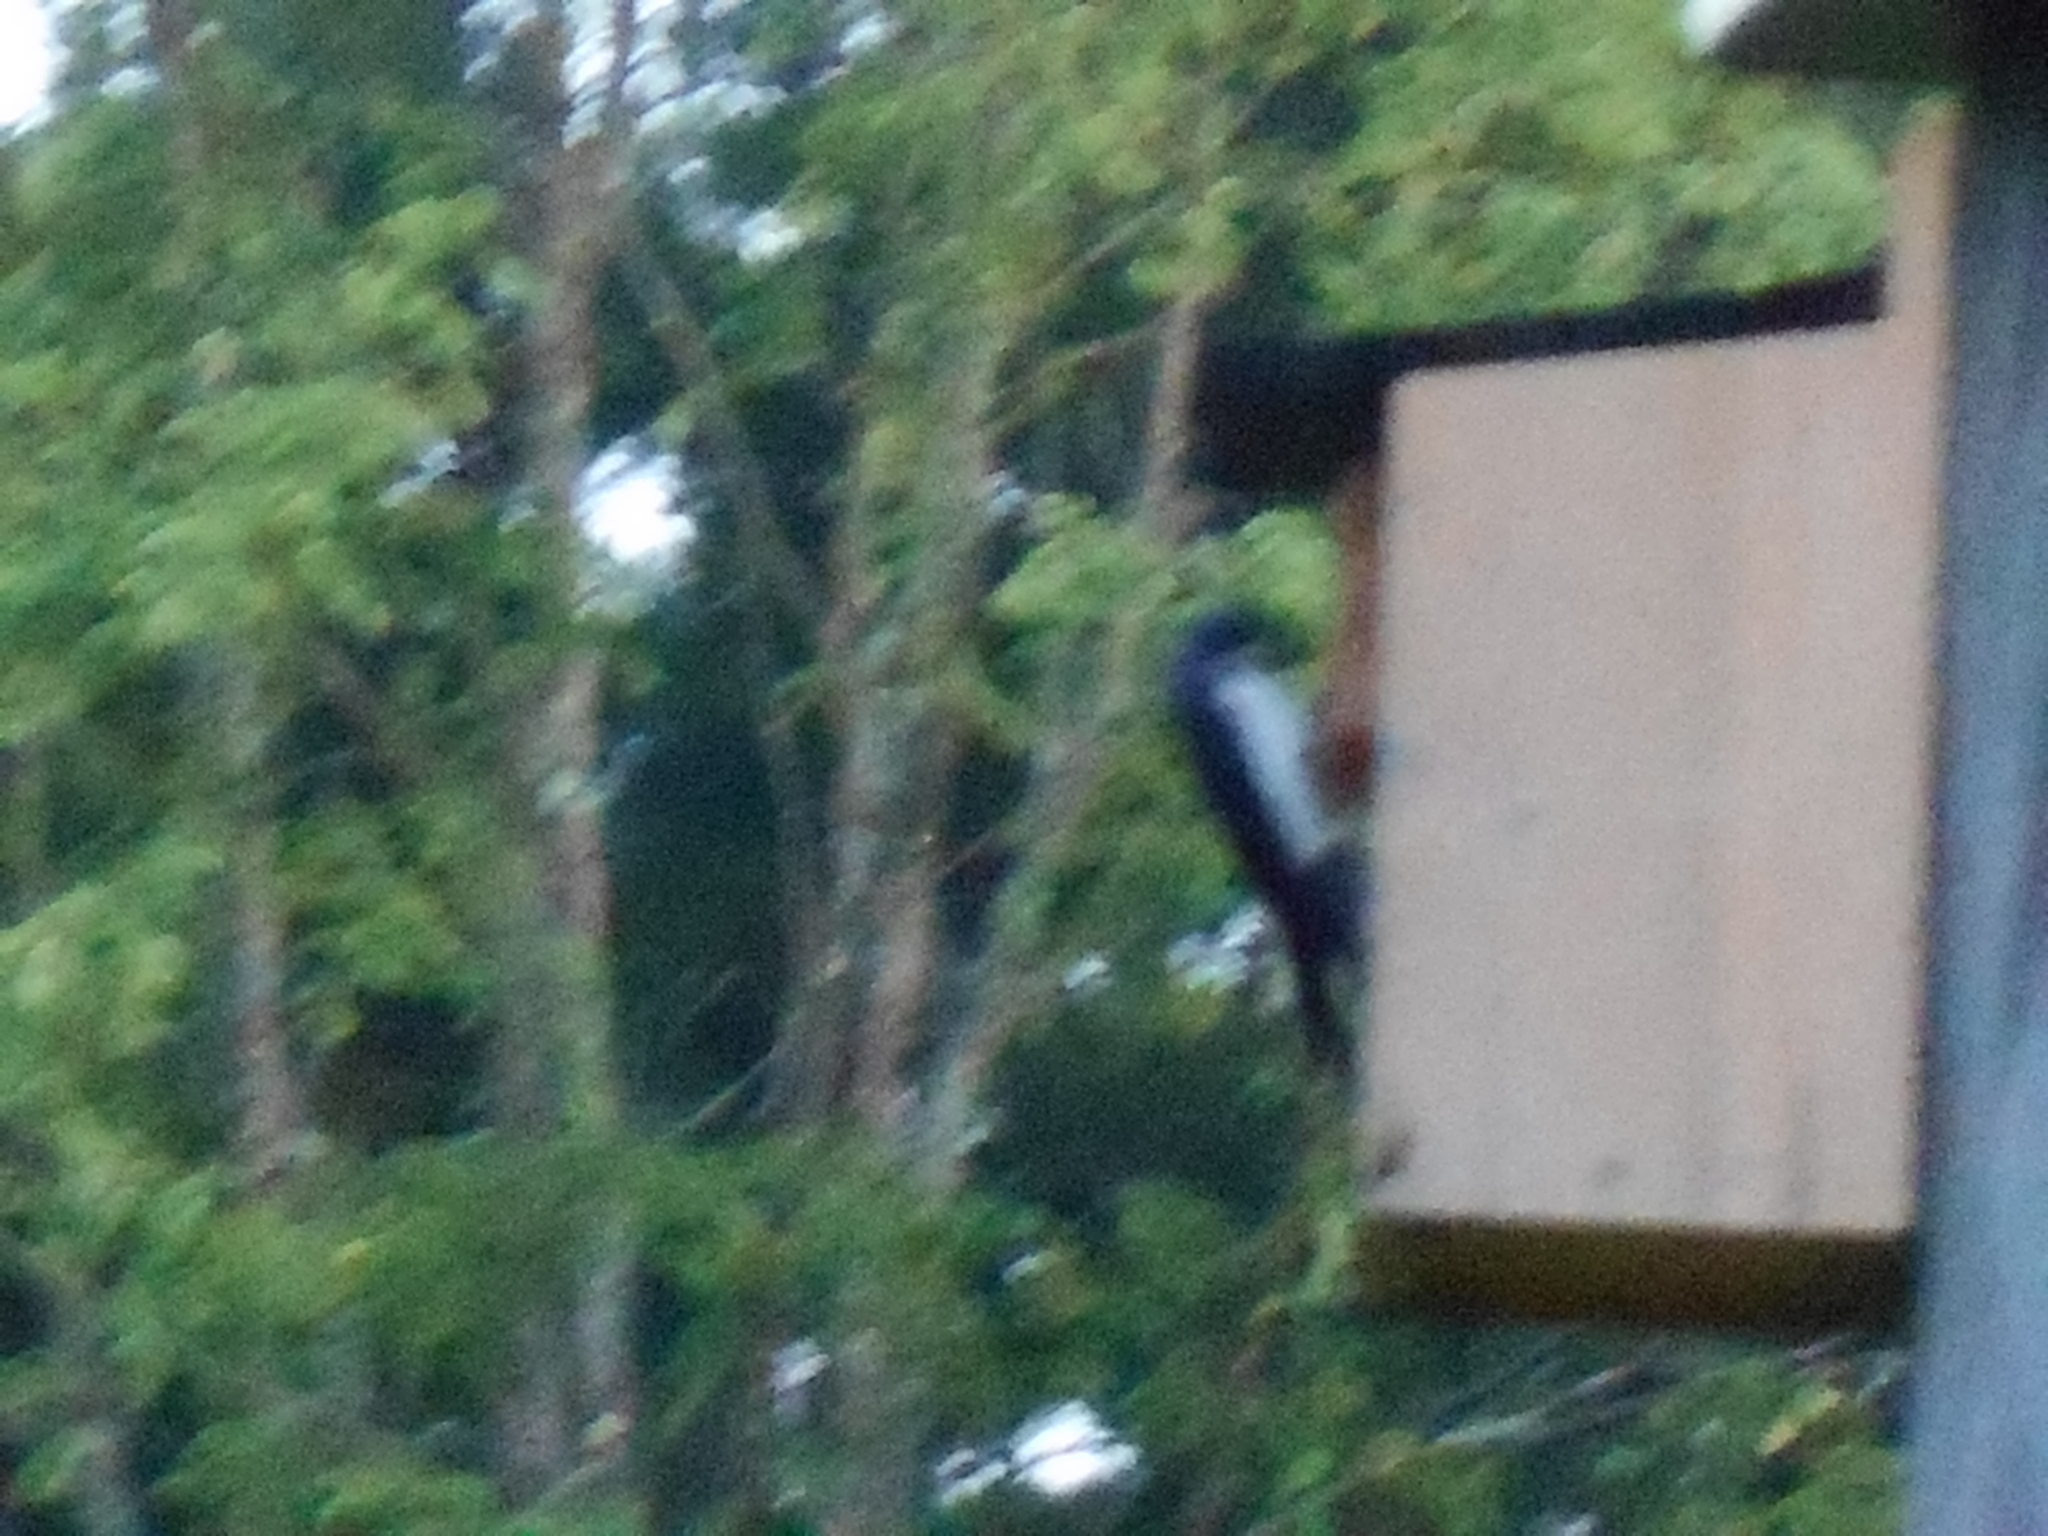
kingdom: Animalia
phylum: Chordata
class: Aves
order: Passeriformes
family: Hirundinidae
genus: Tachycineta
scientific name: Tachycineta bicolor
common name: Tree swallow
